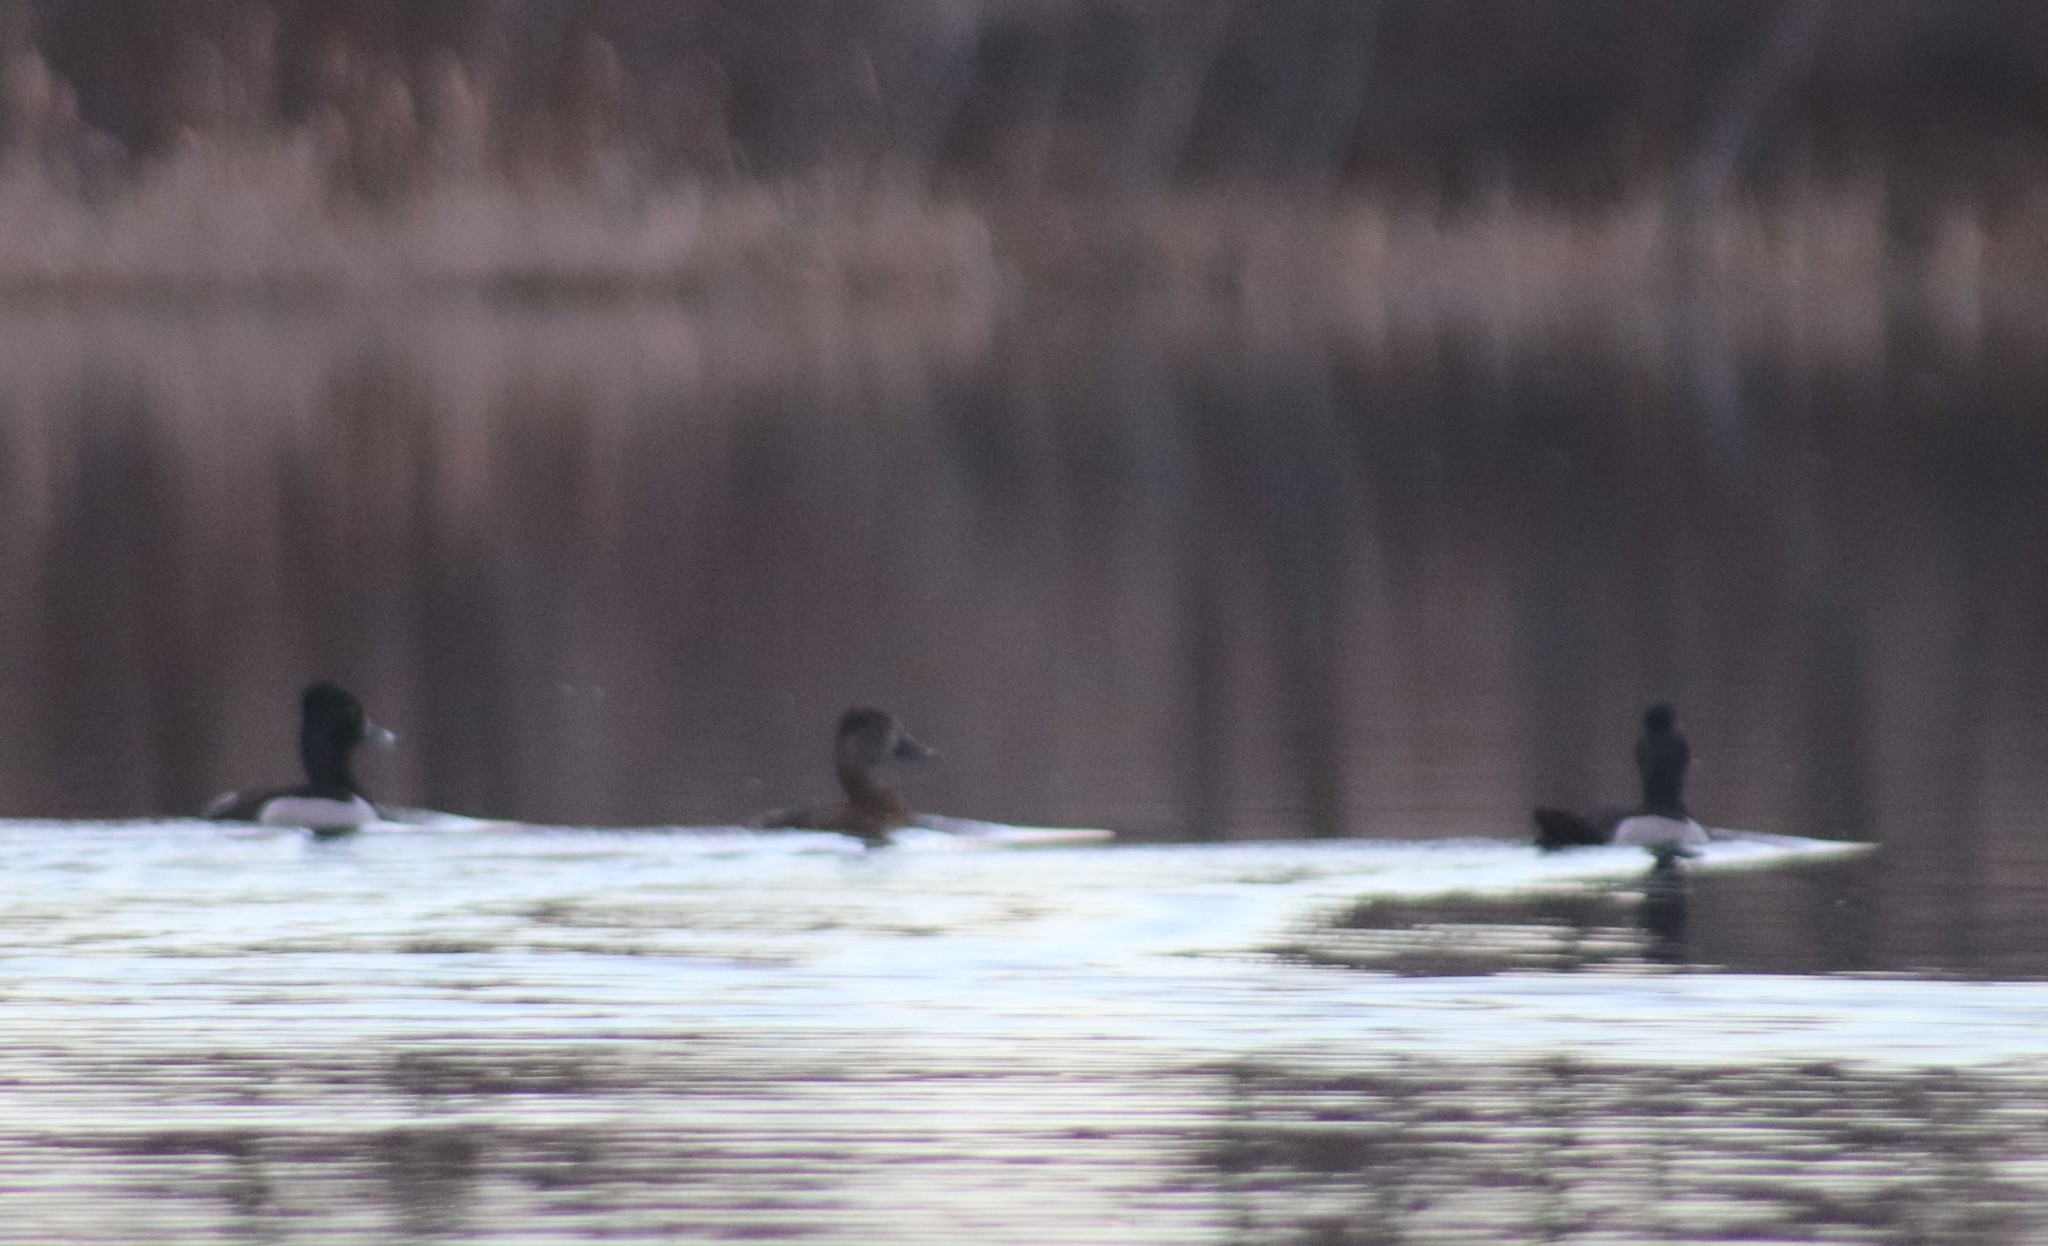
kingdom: Animalia
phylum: Chordata
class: Aves
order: Anseriformes
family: Anatidae
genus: Aythya
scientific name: Aythya collaris
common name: Ring-necked duck
